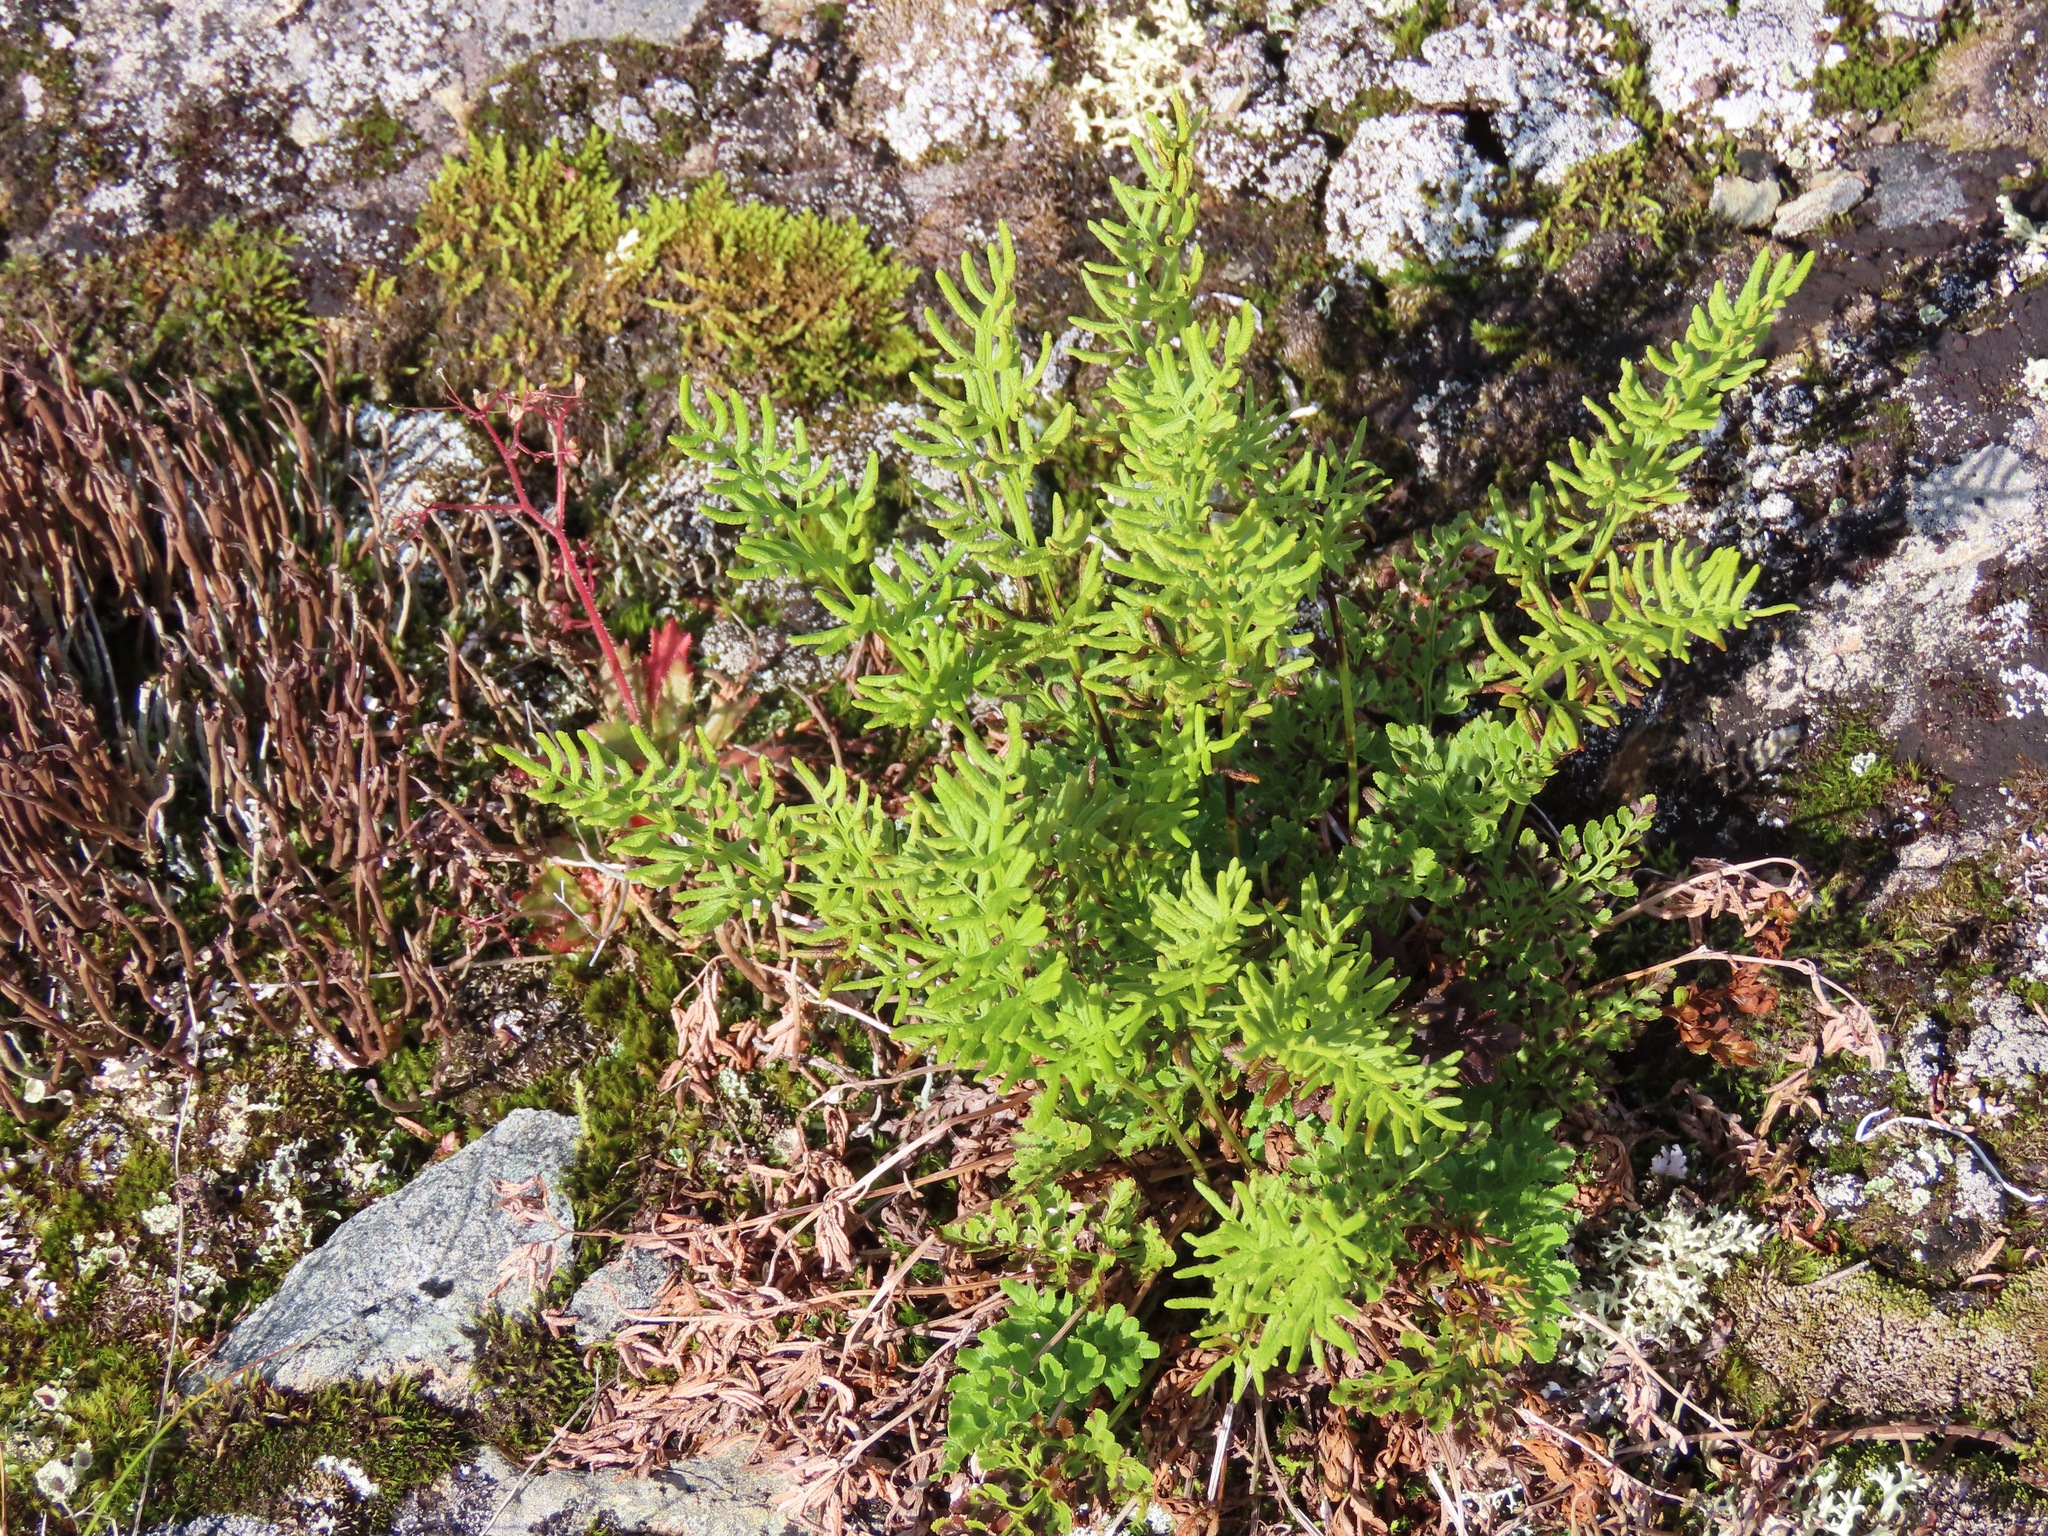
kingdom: Plantae
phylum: Tracheophyta
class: Polypodiopsida
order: Polypodiales
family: Pteridaceae
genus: Cryptogramma
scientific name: Cryptogramma acrostichoides
